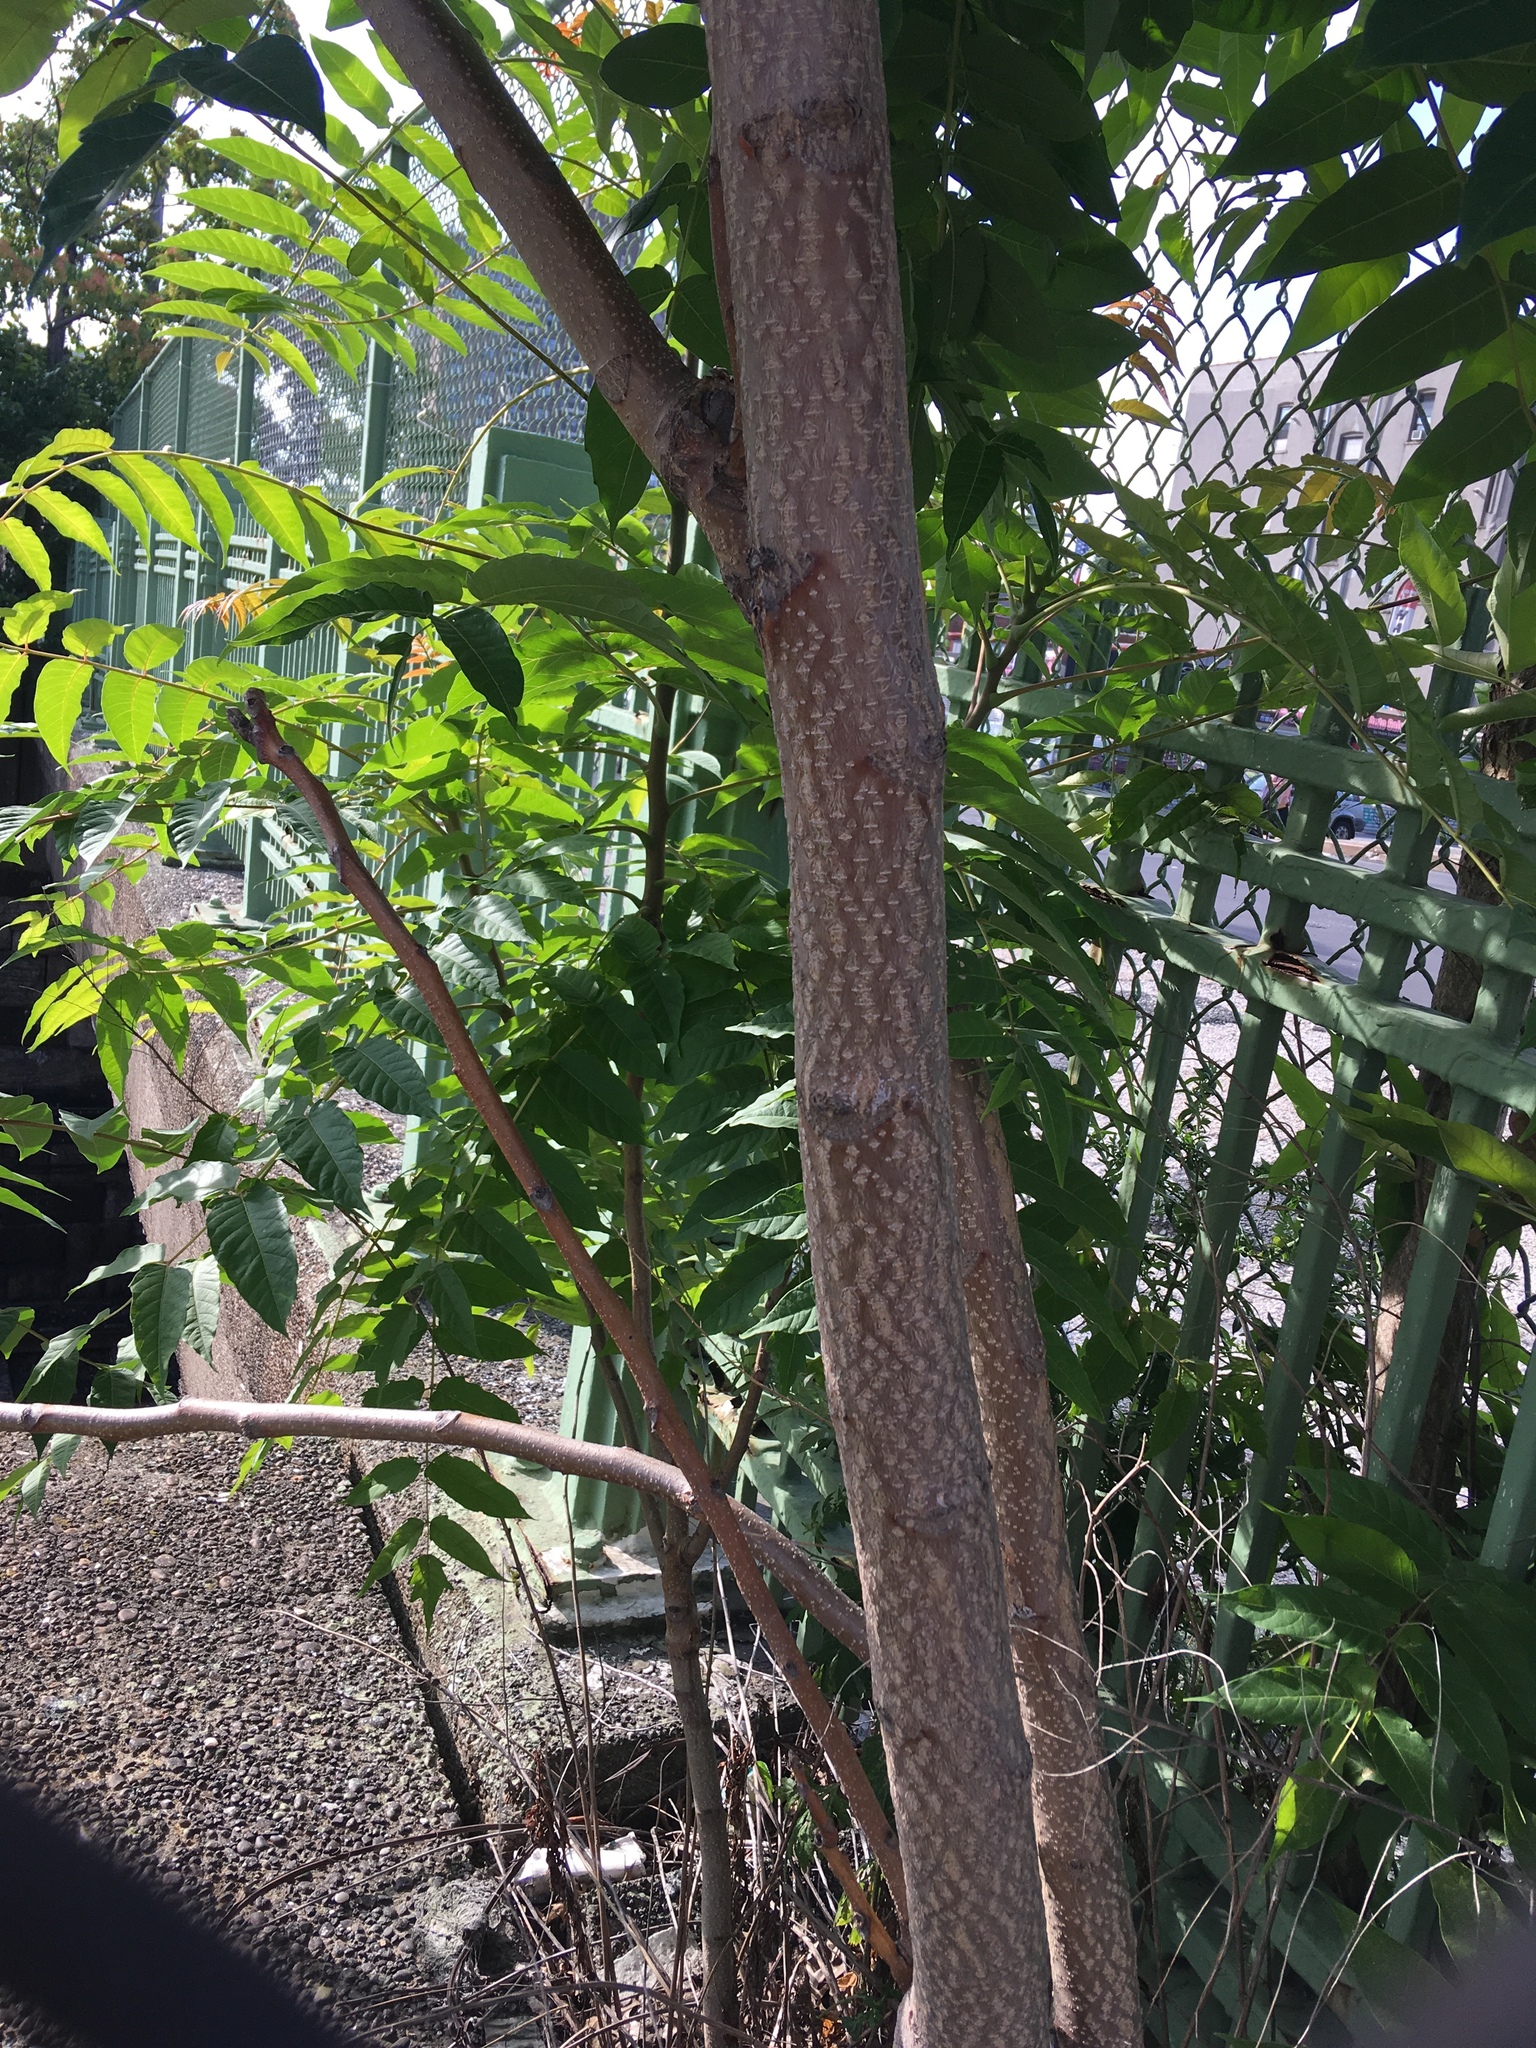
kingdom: Plantae
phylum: Tracheophyta
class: Magnoliopsida
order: Sapindales
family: Simaroubaceae
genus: Ailanthus
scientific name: Ailanthus altissima
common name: Tree-of-heaven
